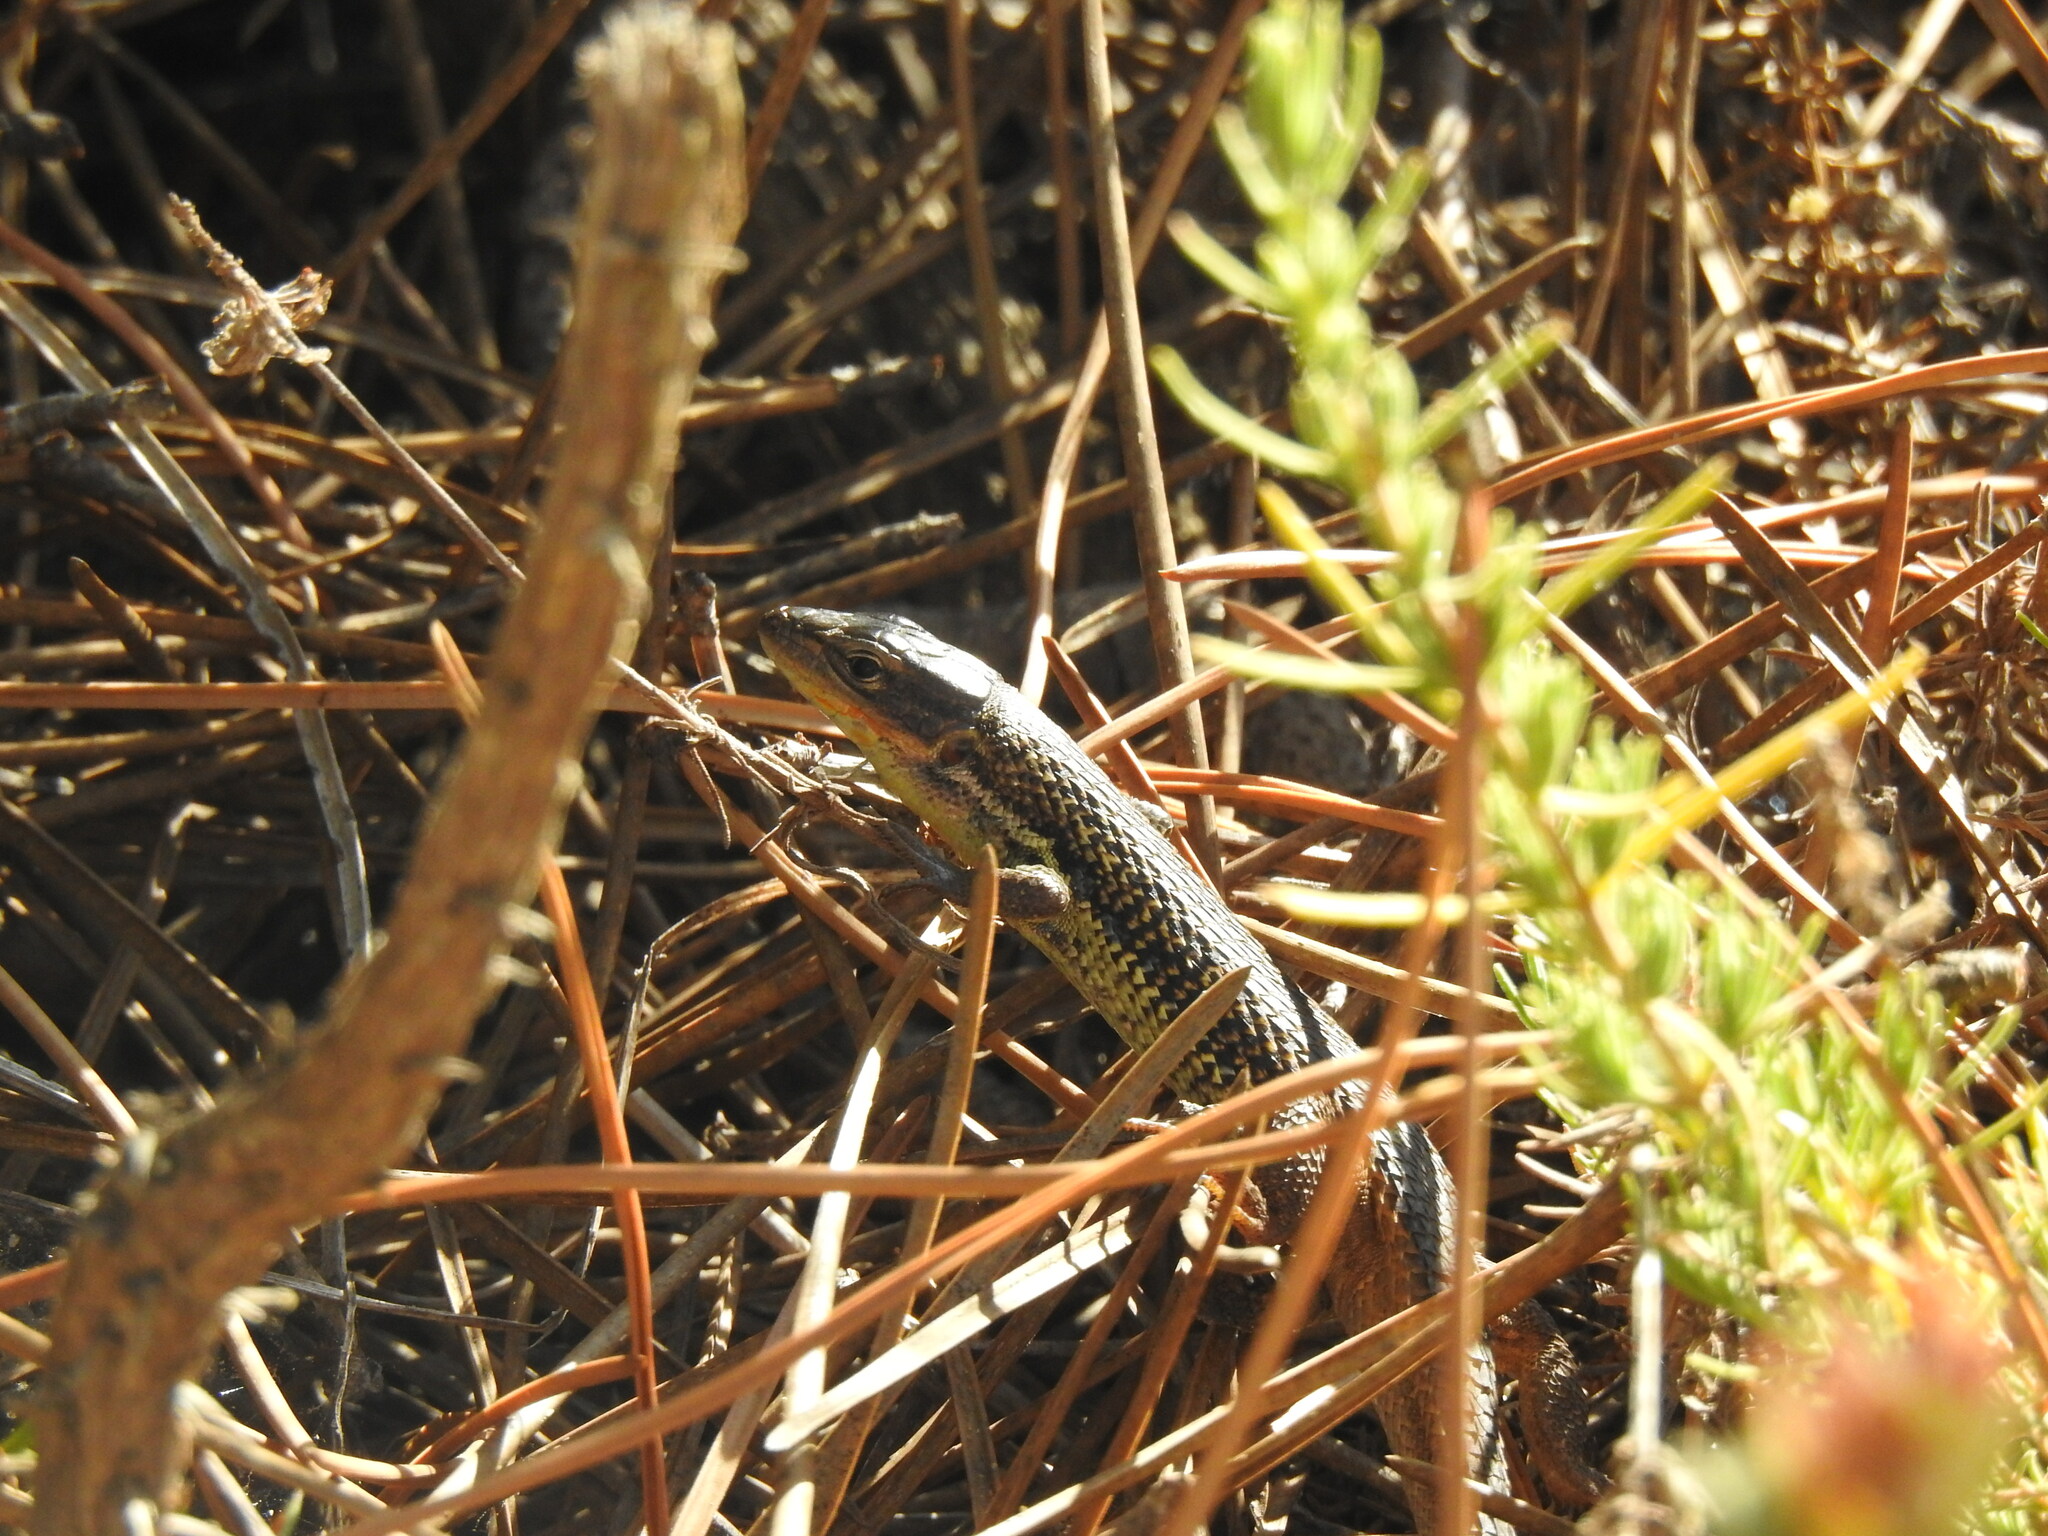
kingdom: Animalia
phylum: Chordata
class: Squamata
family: Lacertidae
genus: Psammodromus
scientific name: Psammodromus algirus
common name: Algerian psammodromus
